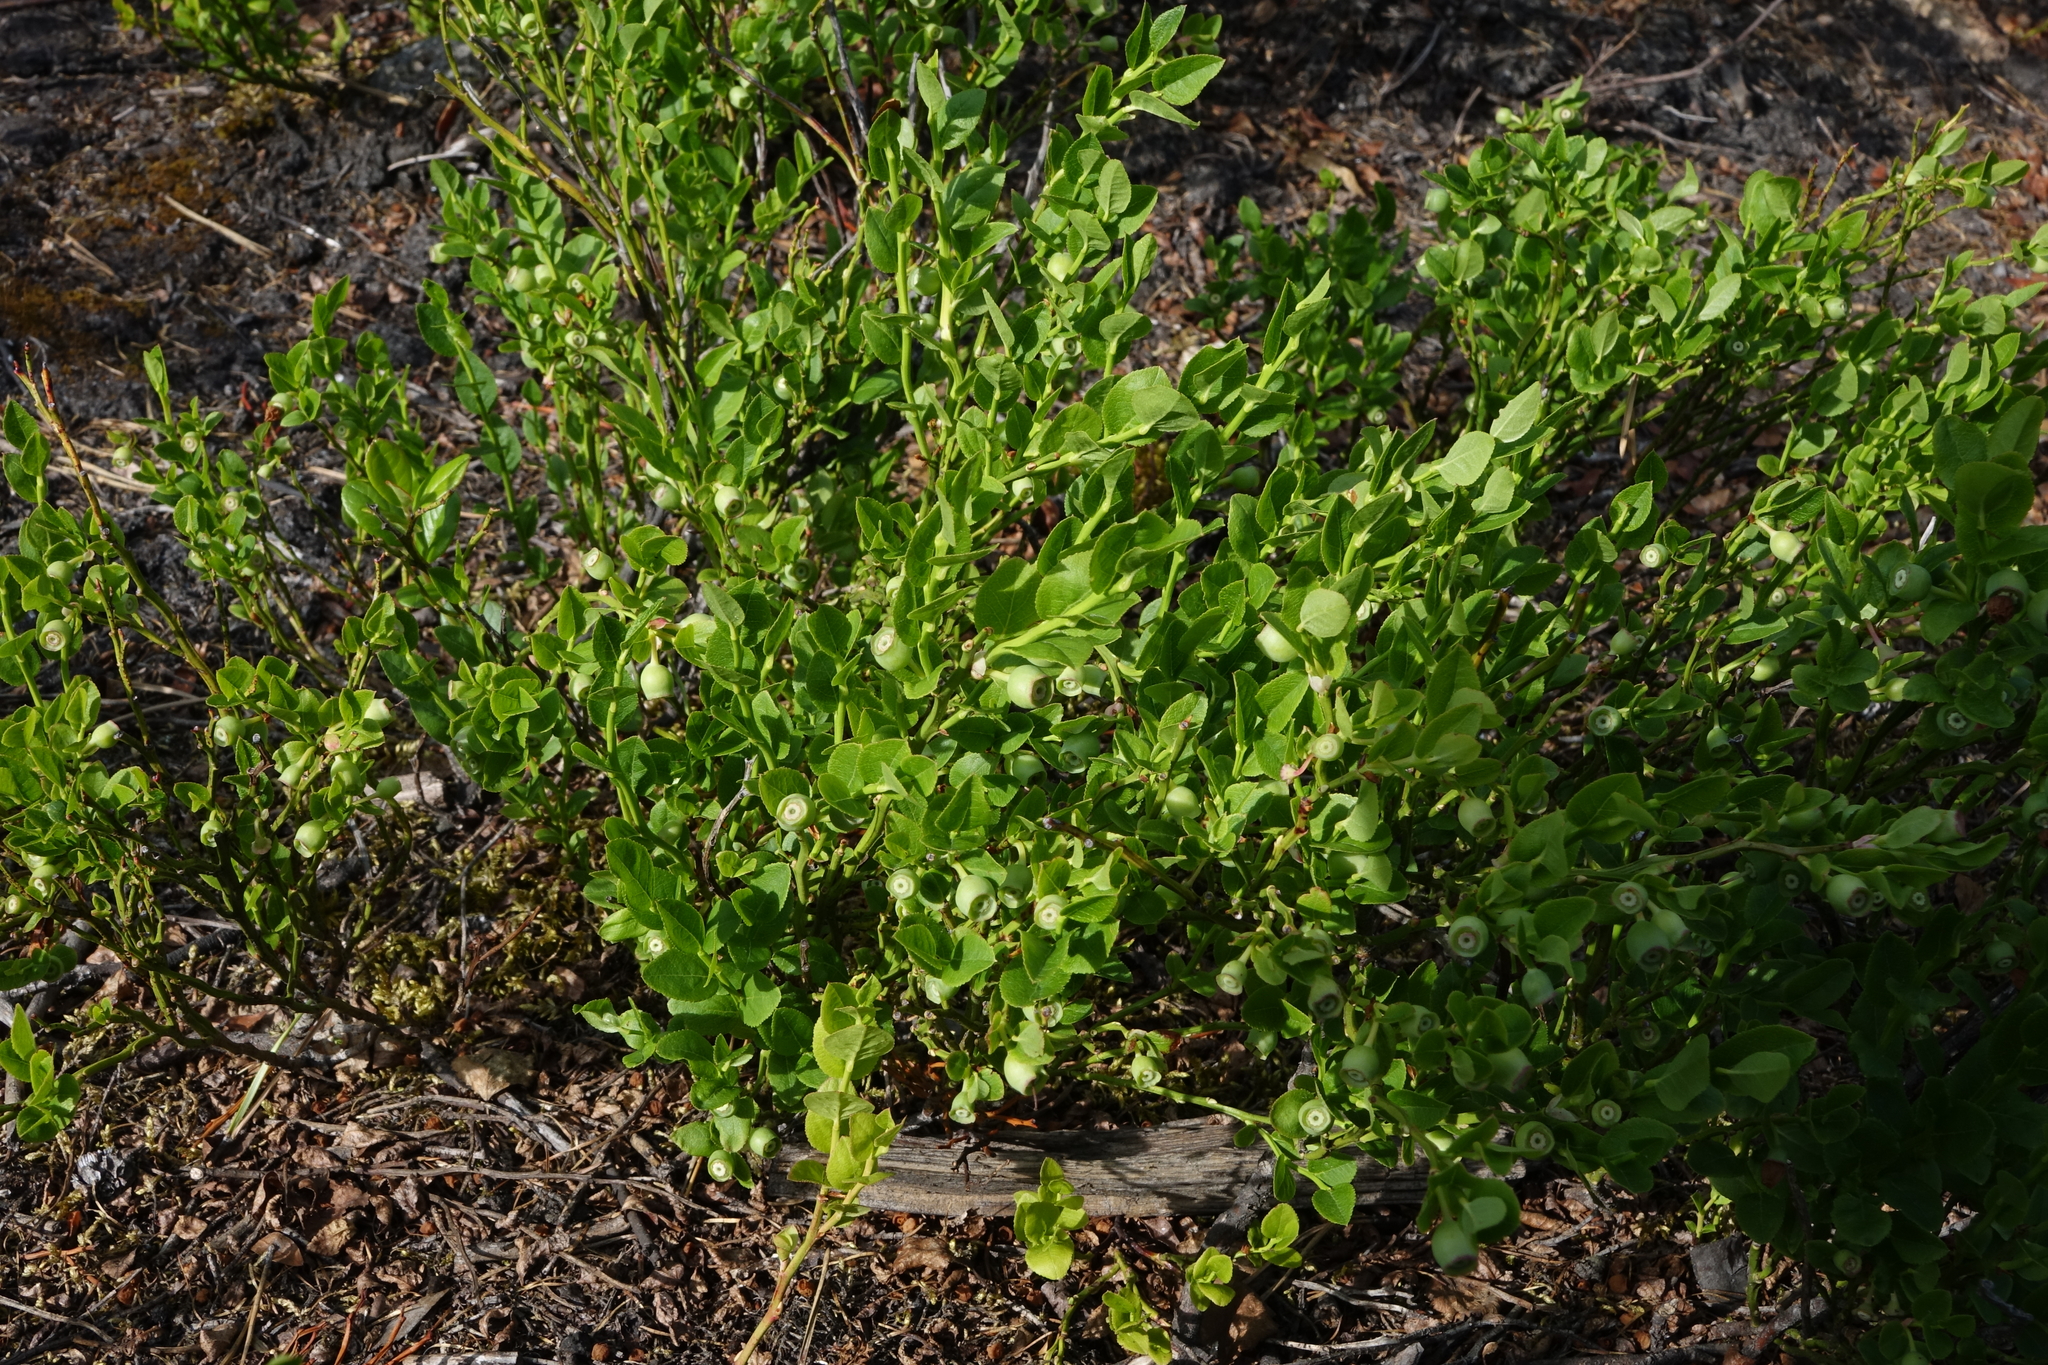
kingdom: Plantae
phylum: Tracheophyta
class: Magnoliopsida
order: Ericales
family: Ericaceae
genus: Vaccinium
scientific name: Vaccinium myrtillus
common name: Bilberry
